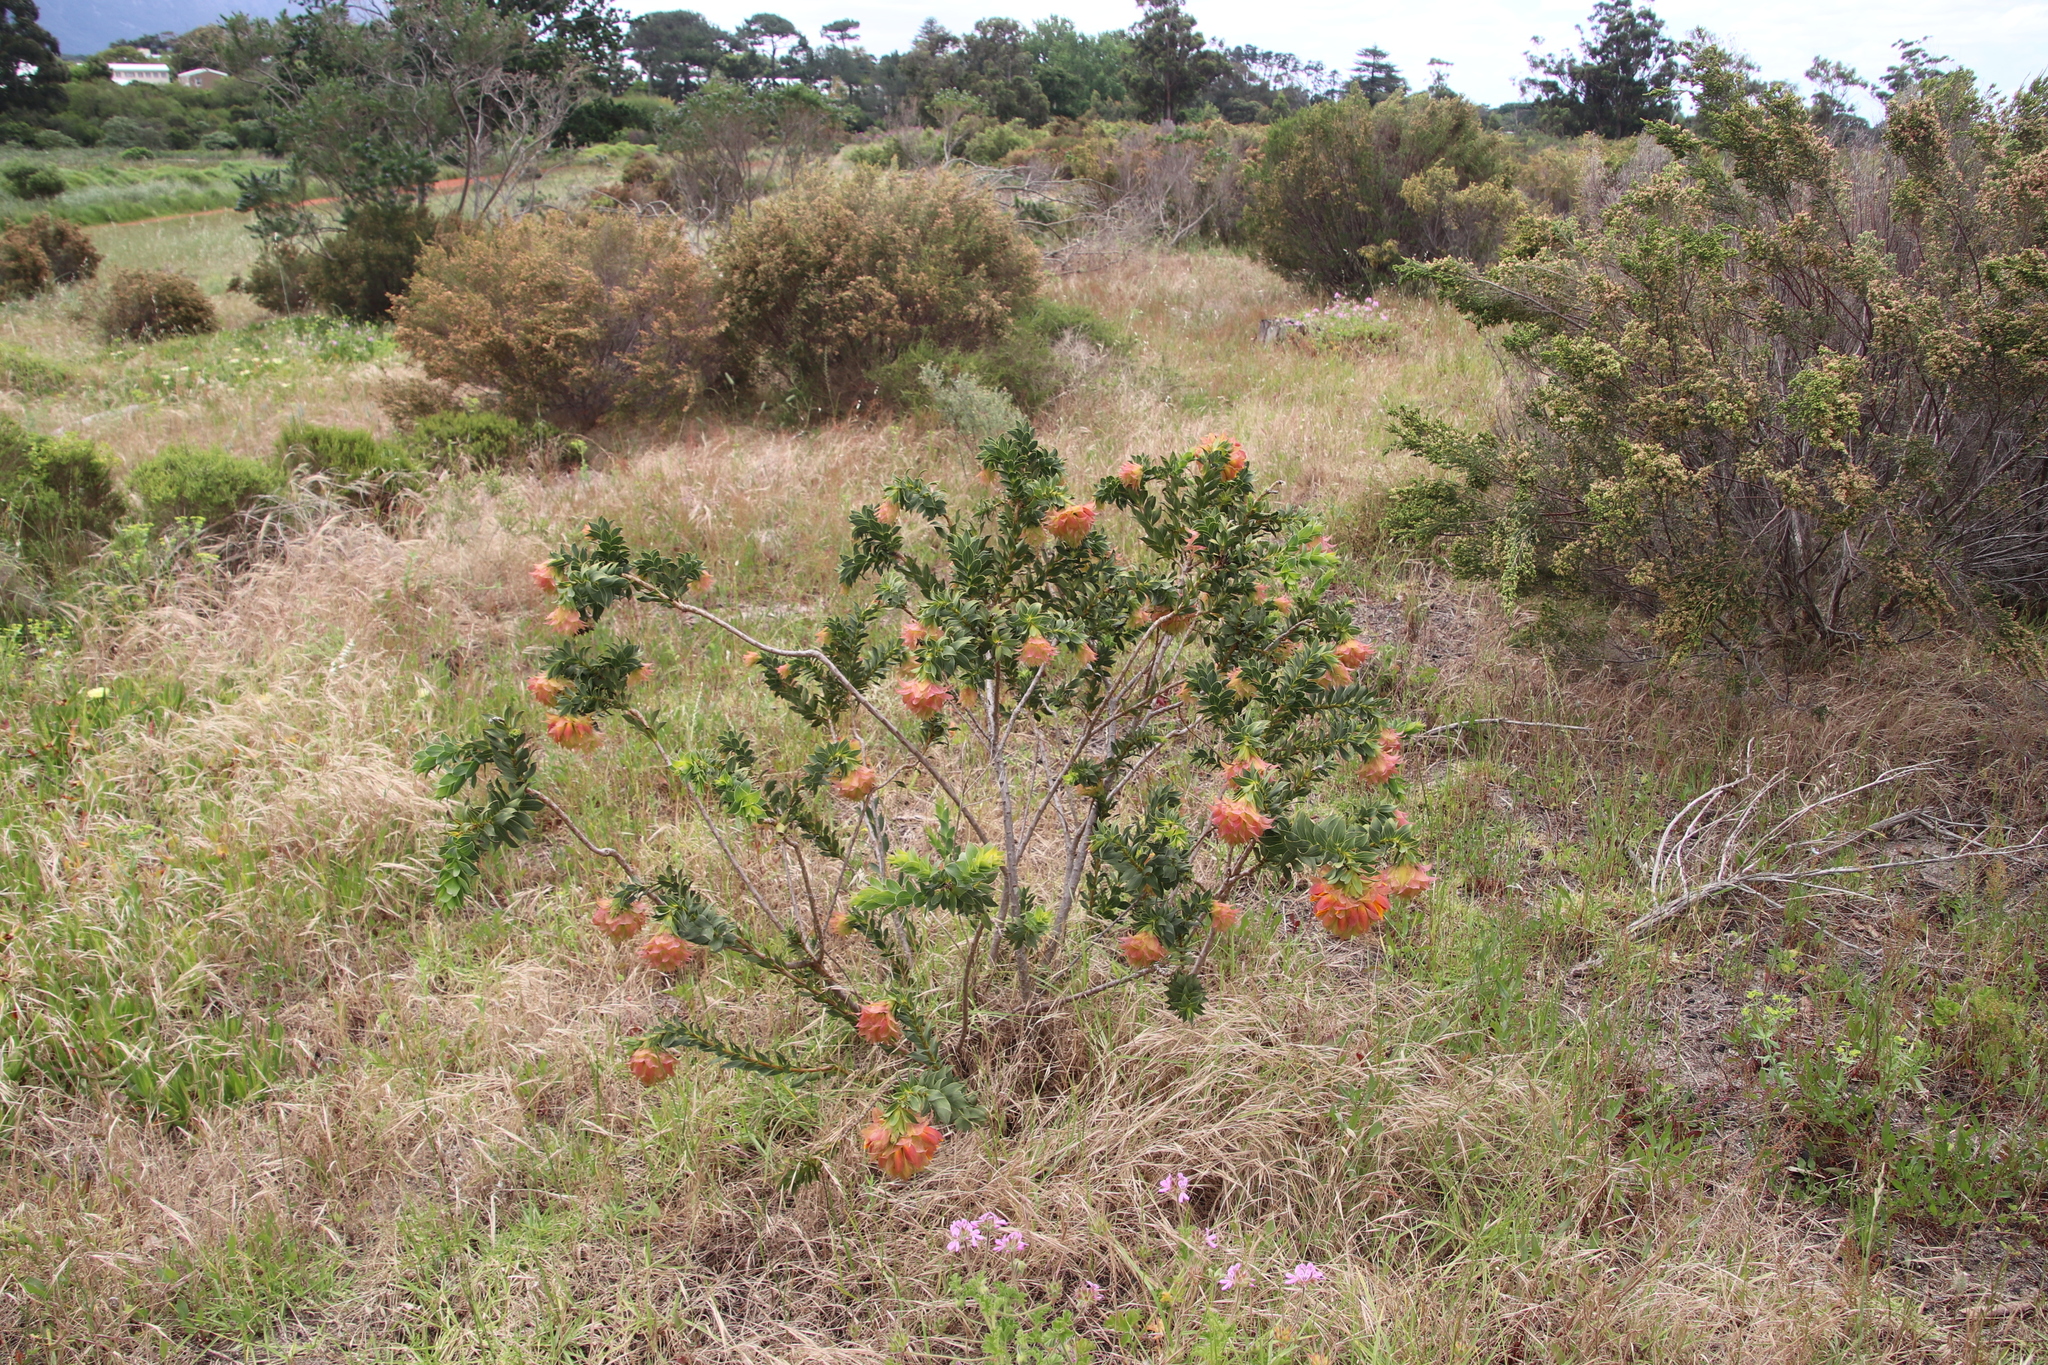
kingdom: Plantae
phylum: Tracheophyta
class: Magnoliopsida
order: Fabales
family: Fabaceae
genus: Liparia
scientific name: Liparia splendens
